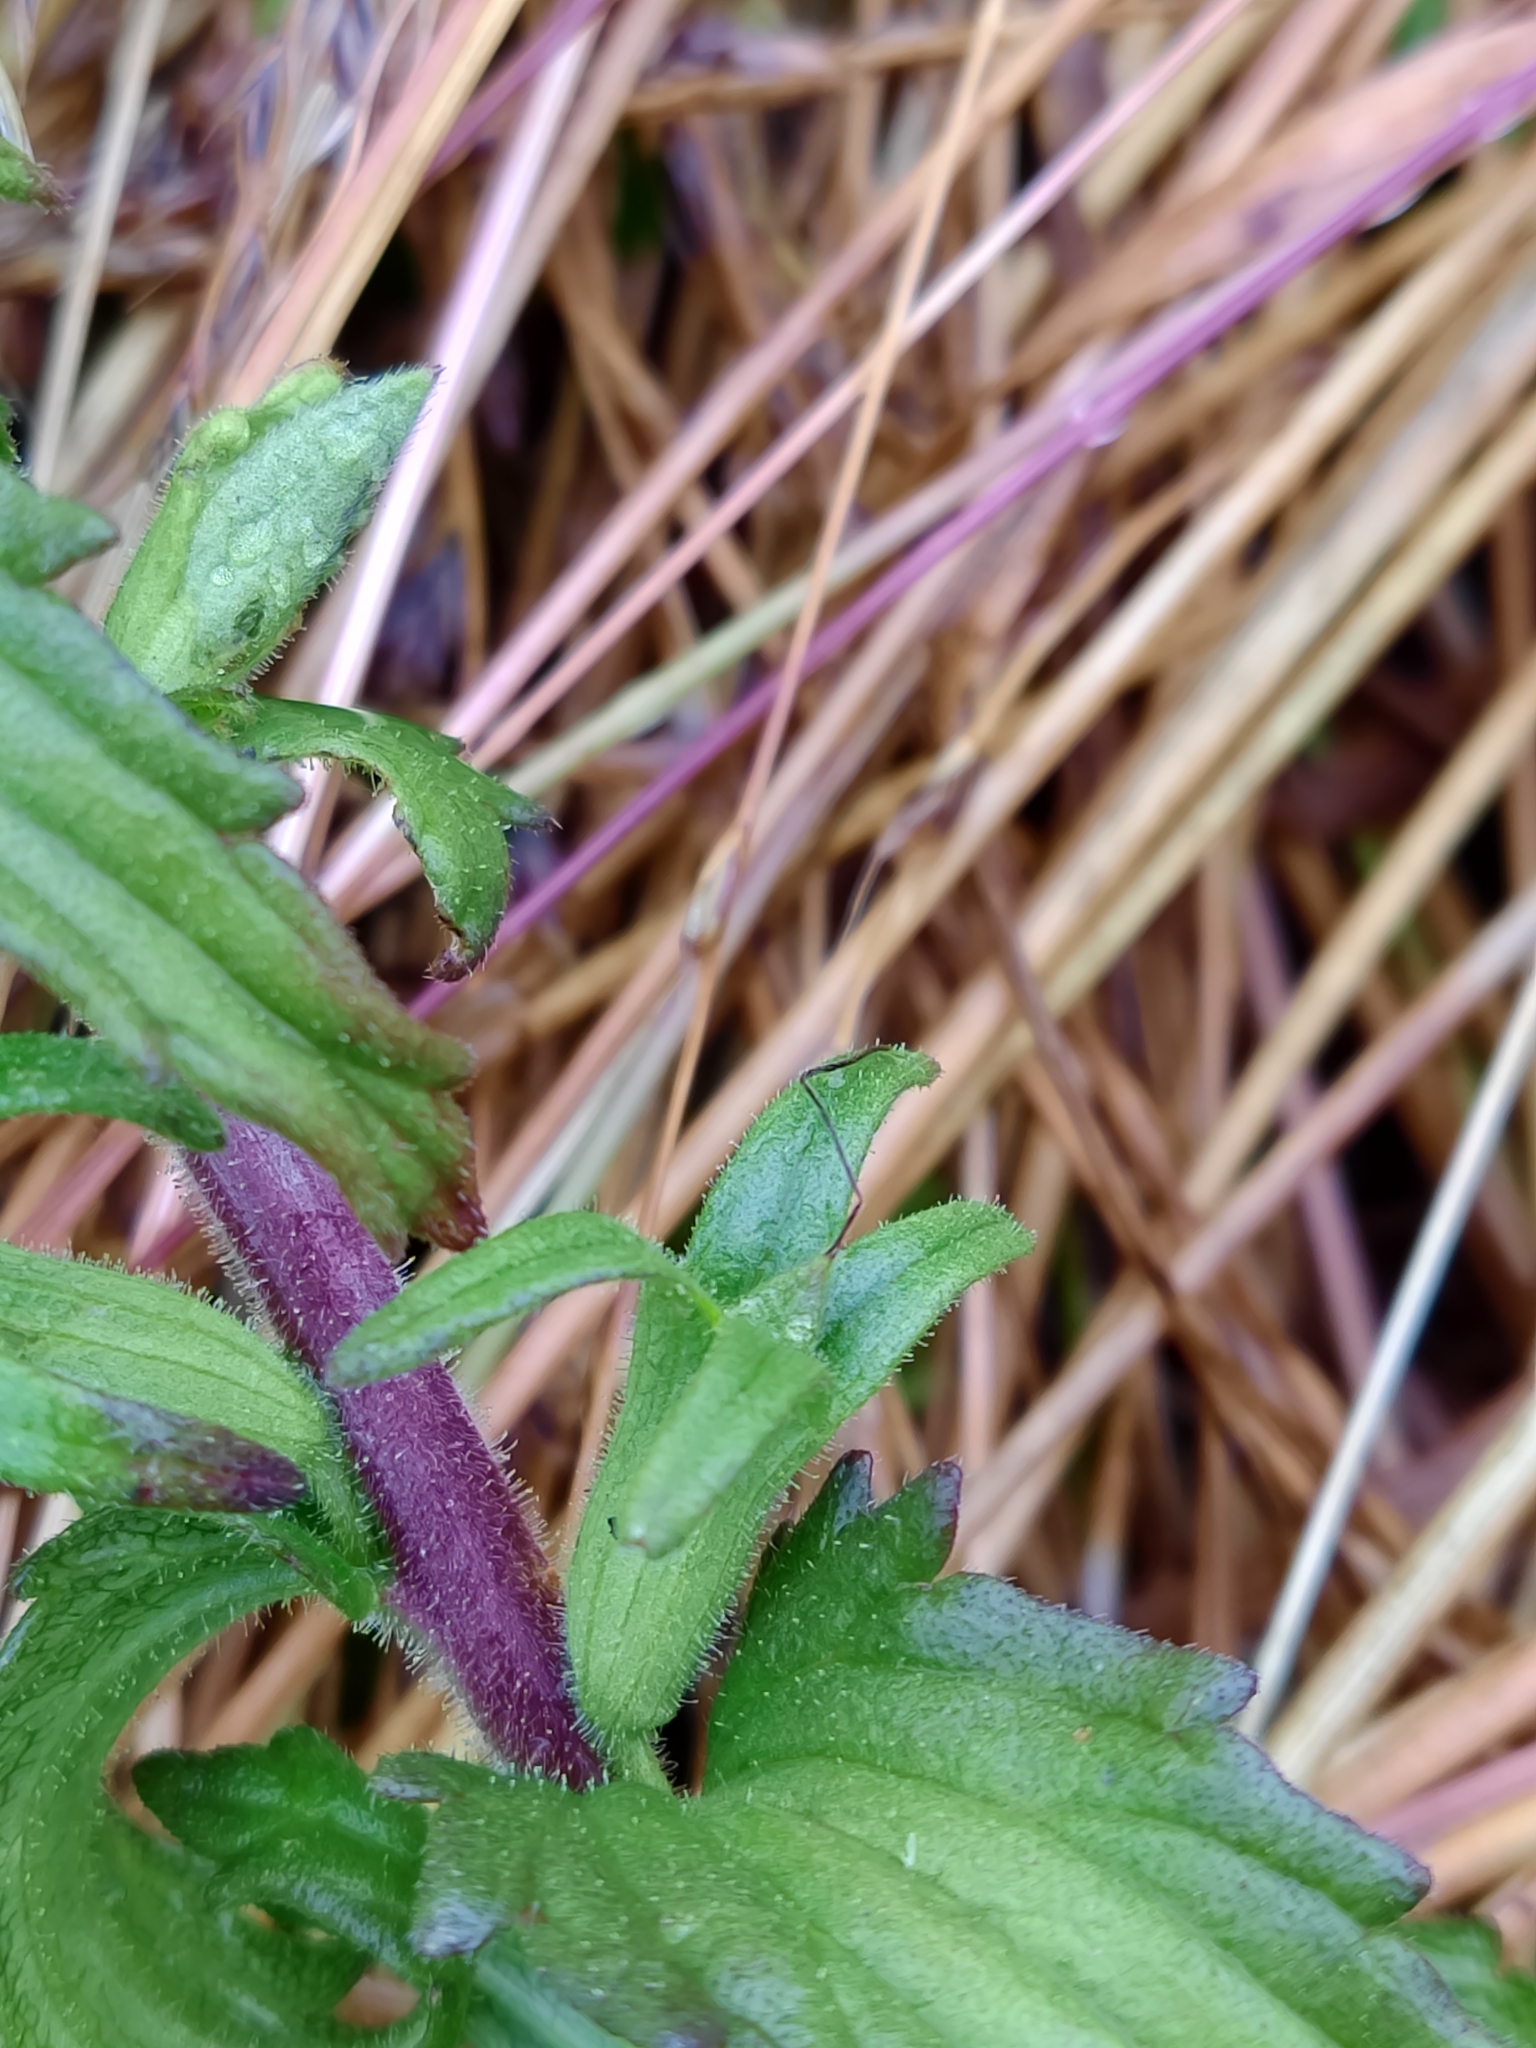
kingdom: Plantae
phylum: Tracheophyta
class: Magnoliopsida
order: Lamiales
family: Orobanchaceae
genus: Bellardia
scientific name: Bellardia viscosa
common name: Sticky parentucellia
